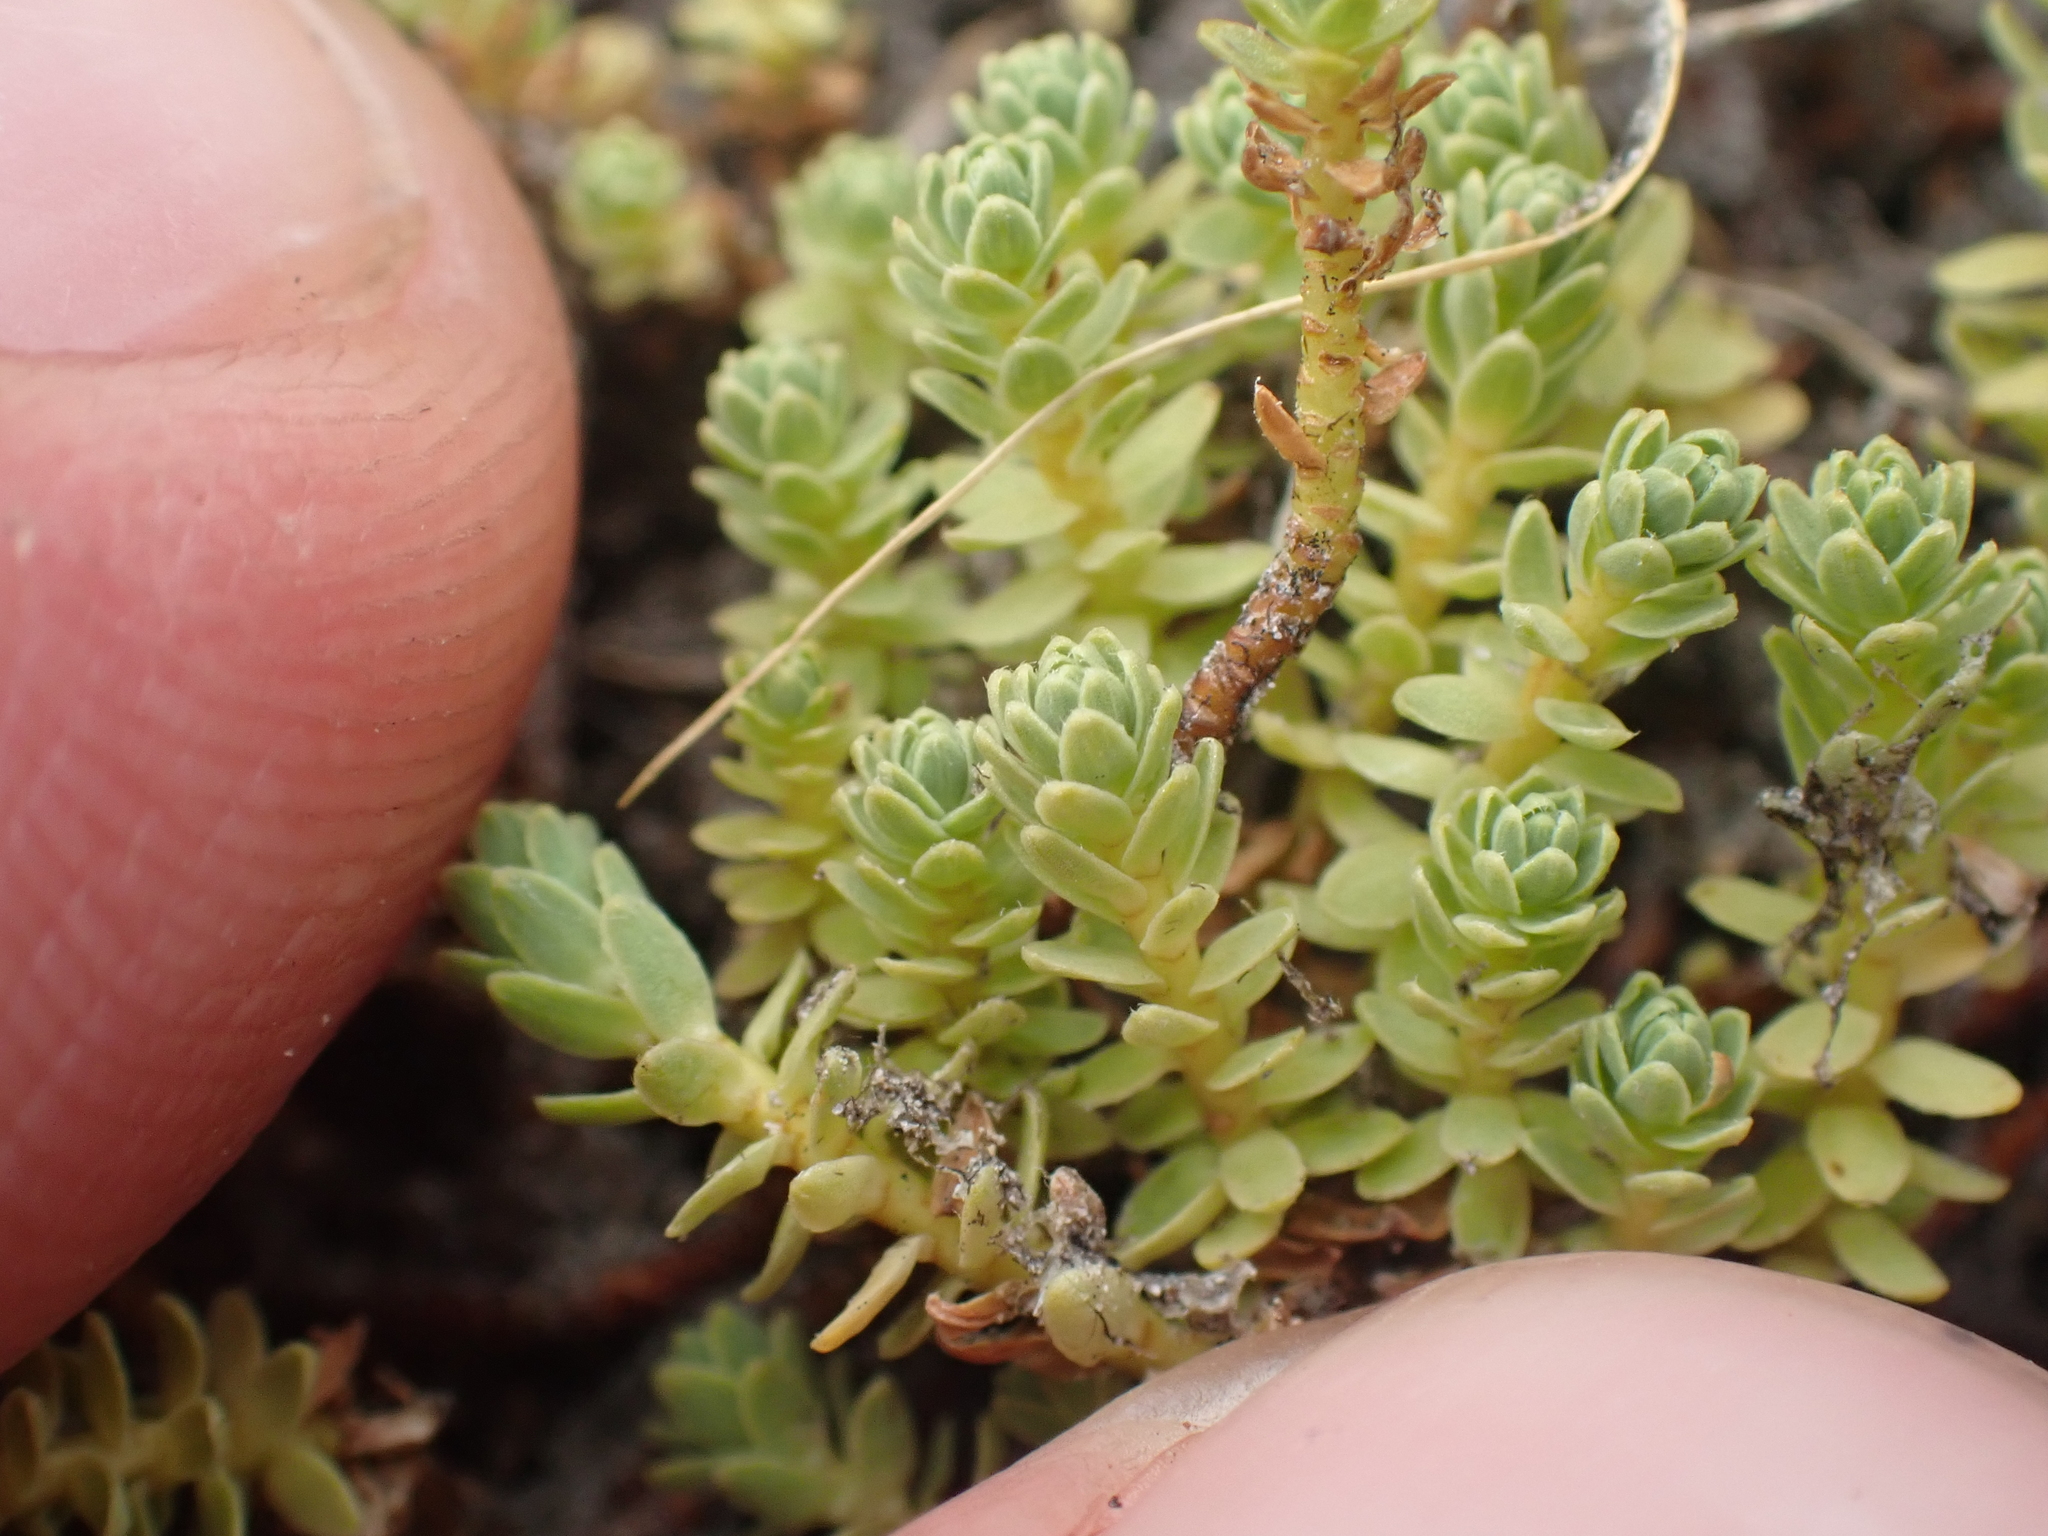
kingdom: Plantae
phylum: Tracheophyta
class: Magnoliopsida
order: Malvales
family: Thymelaeaceae
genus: Kelleria
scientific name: Kelleria paludosa
